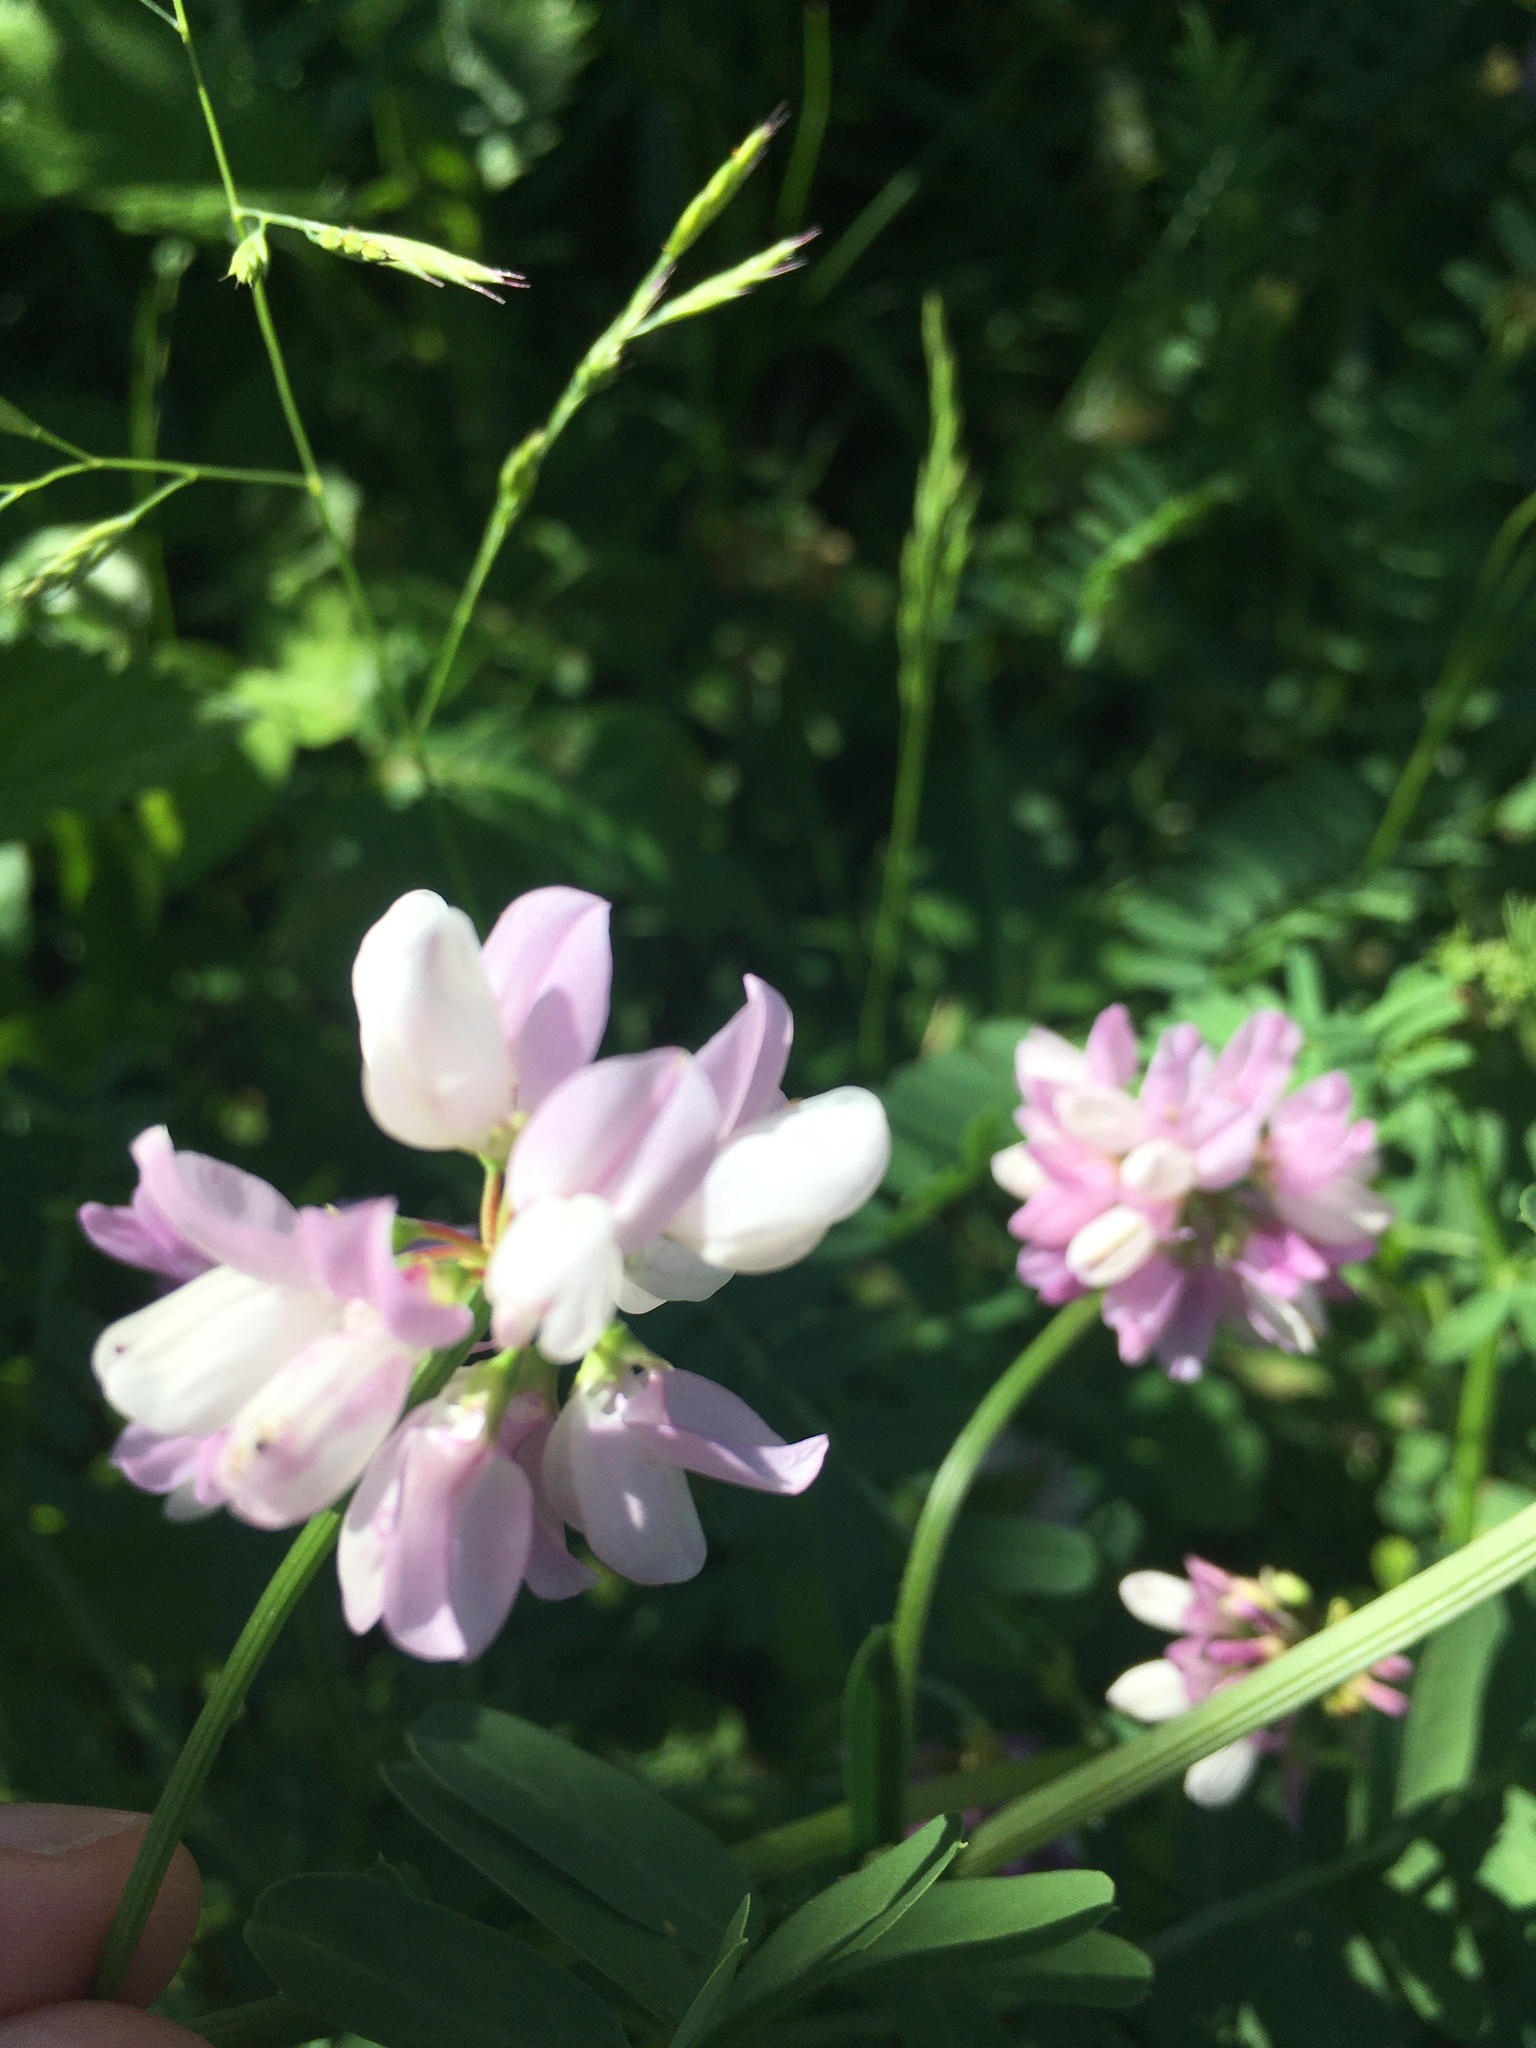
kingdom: Plantae
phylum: Tracheophyta
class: Magnoliopsida
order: Fabales
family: Fabaceae
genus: Coronilla
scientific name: Coronilla varia
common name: Crownvetch
